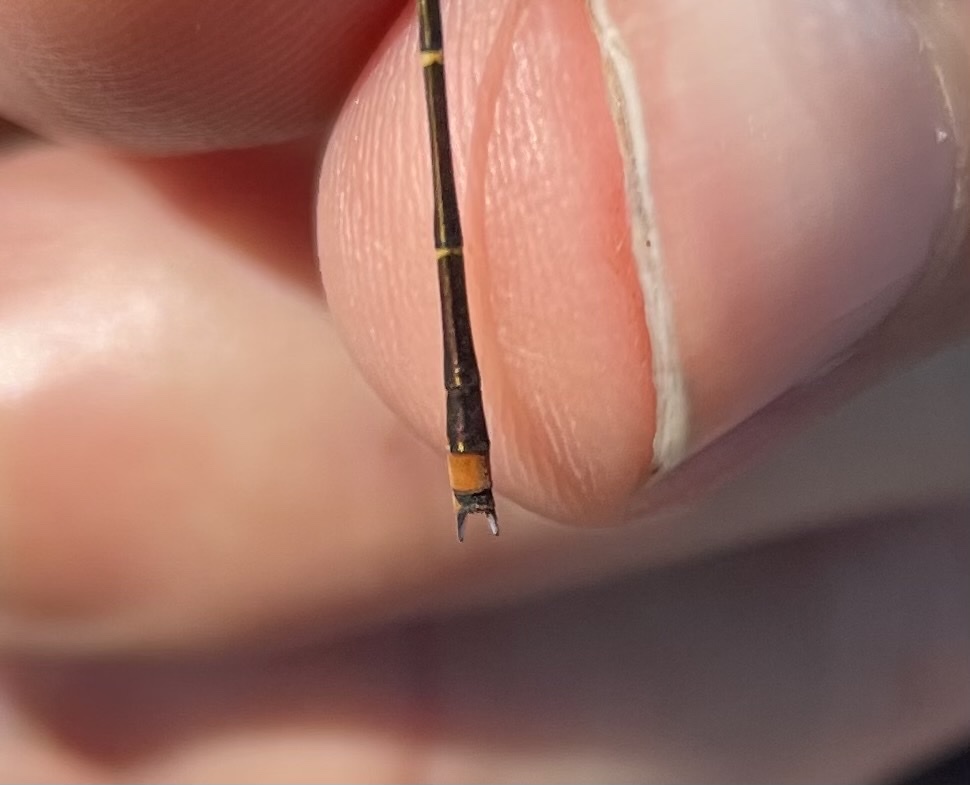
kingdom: Animalia
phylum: Arthropoda
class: Insecta
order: Odonata
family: Coenagrionidae
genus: Enallagma
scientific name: Enallagma signatum
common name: Orange bluet
